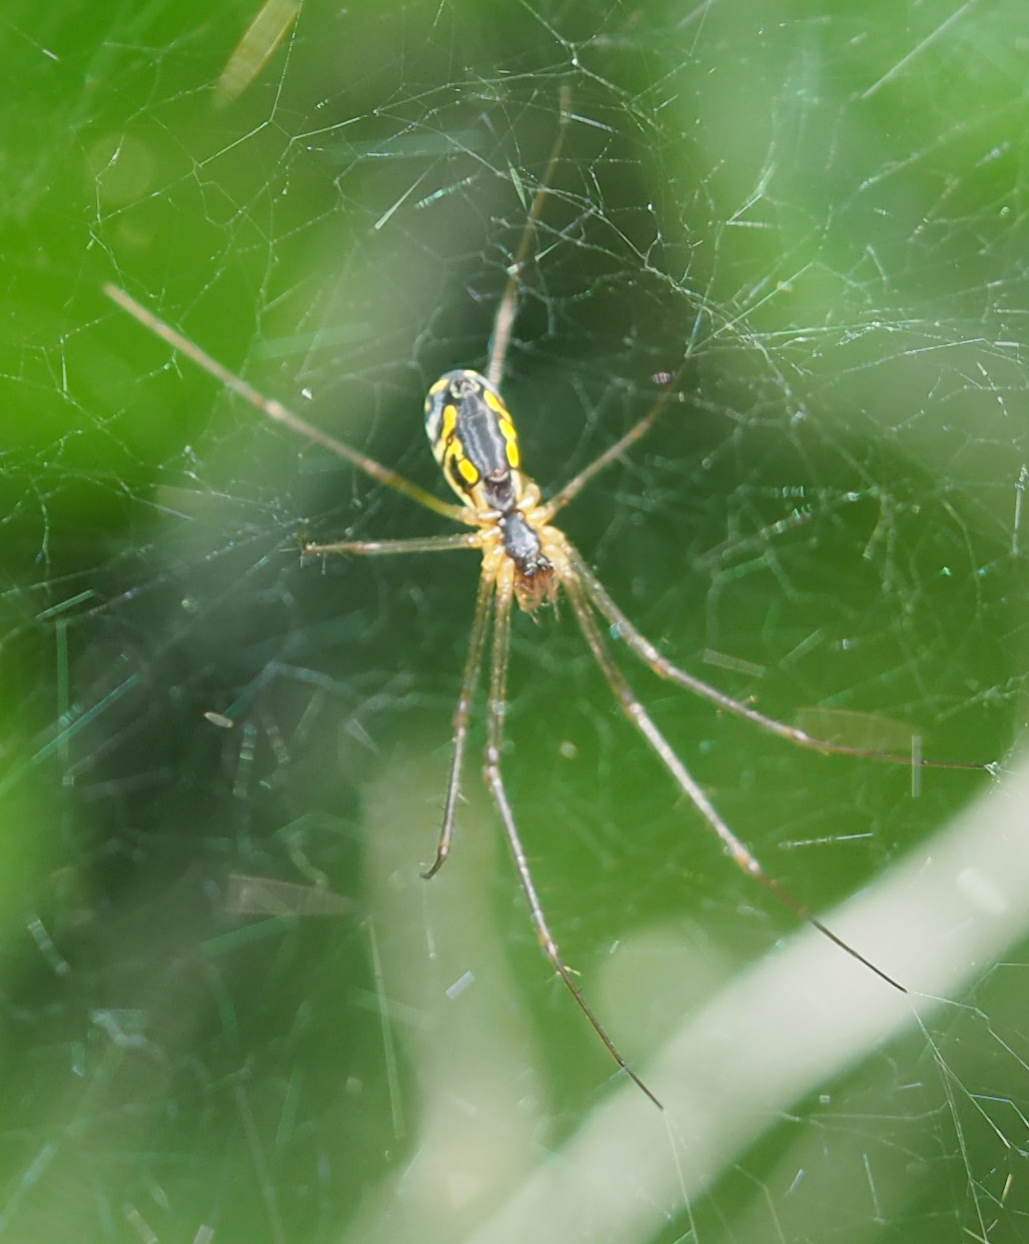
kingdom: Animalia
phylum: Arthropoda
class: Arachnida
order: Araneae
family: Linyphiidae
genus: Neriene
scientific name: Neriene radiata
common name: Filmy dome spider
